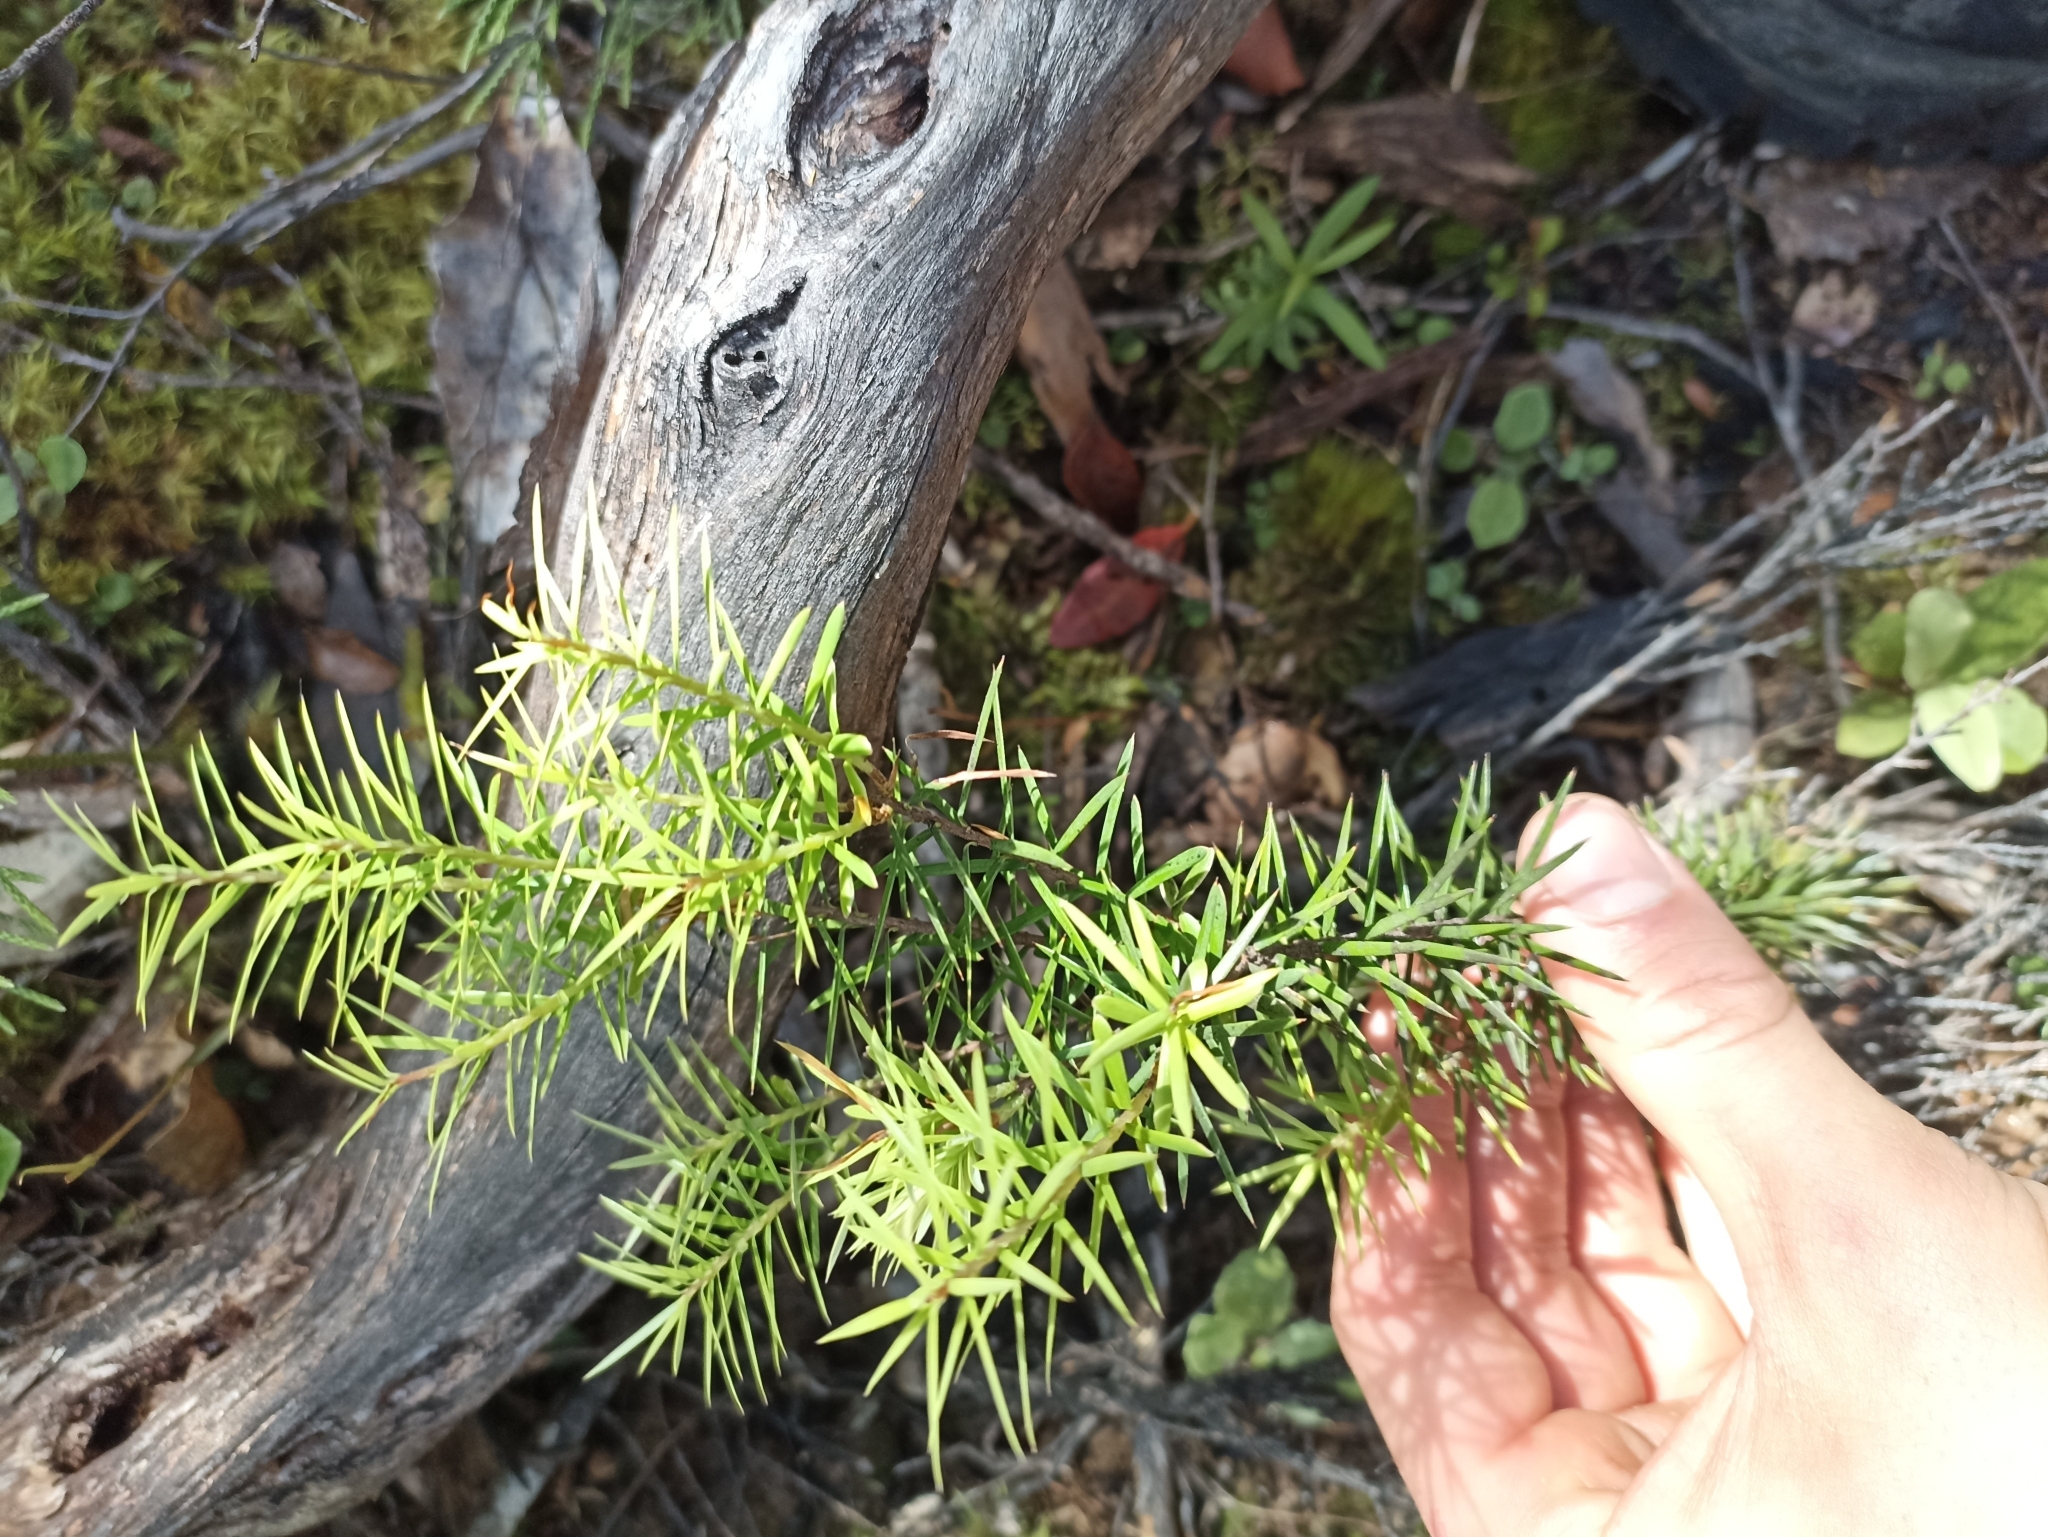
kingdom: Plantae
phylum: Tracheophyta
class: Magnoliopsida
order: Ericales
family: Ericaceae
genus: Leptecophylla
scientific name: Leptecophylla juniperina
